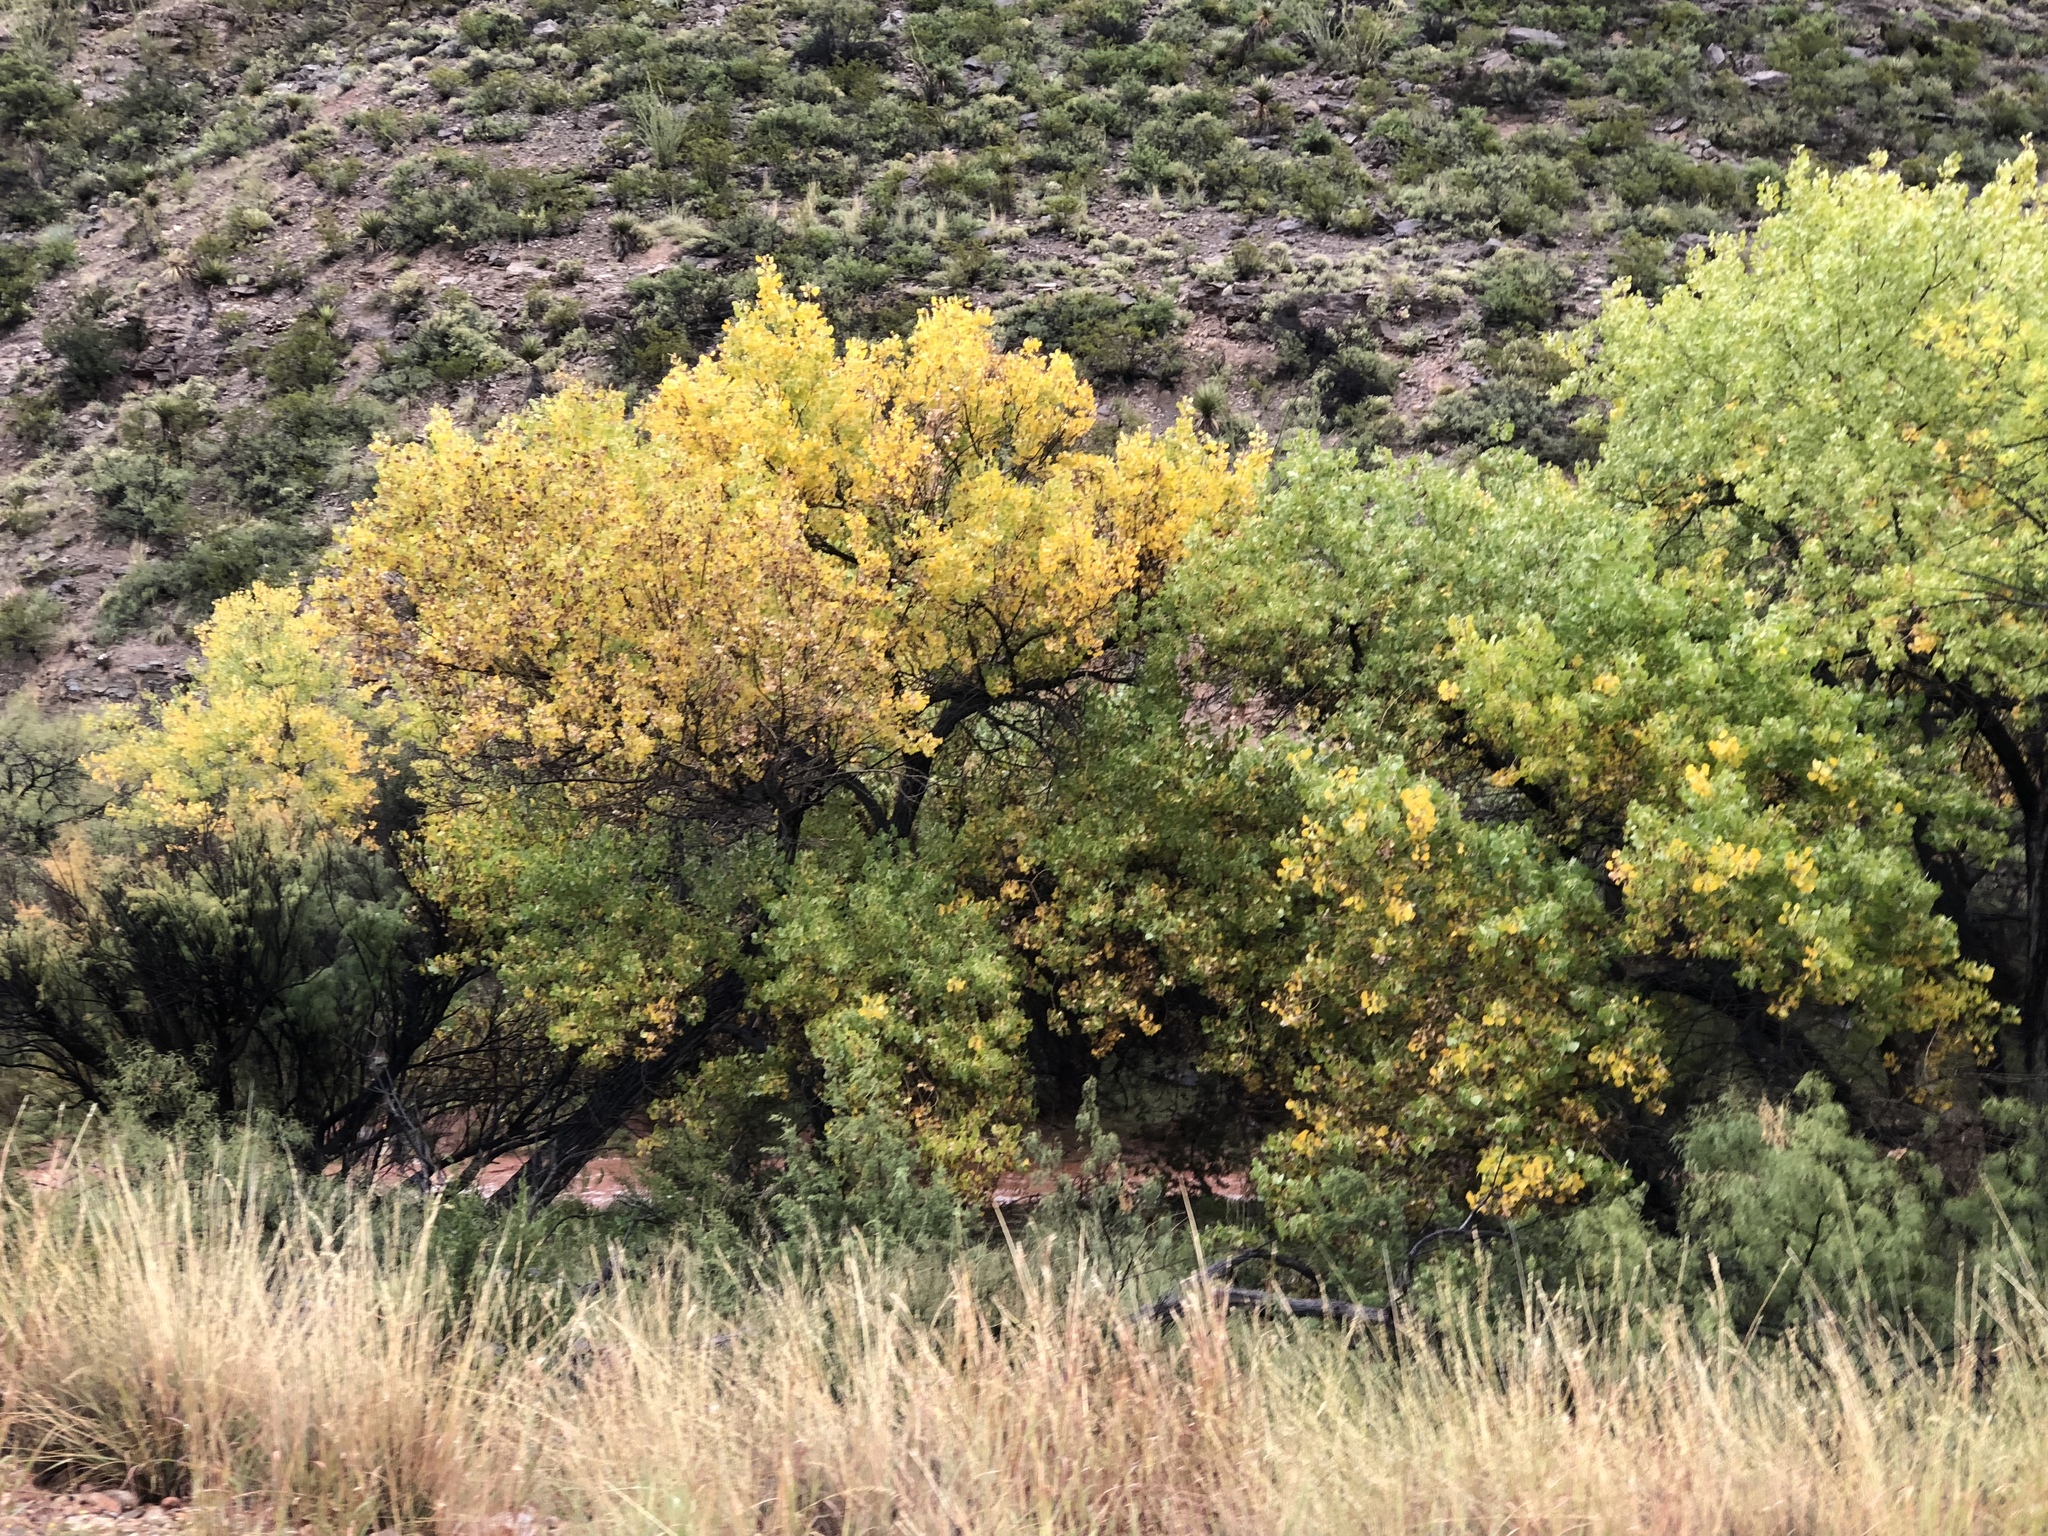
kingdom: Plantae
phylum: Tracheophyta
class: Magnoliopsida
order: Malpighiales
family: Salicaceae
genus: Populus
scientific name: Populus fremontii
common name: Fremont's cottonwood
